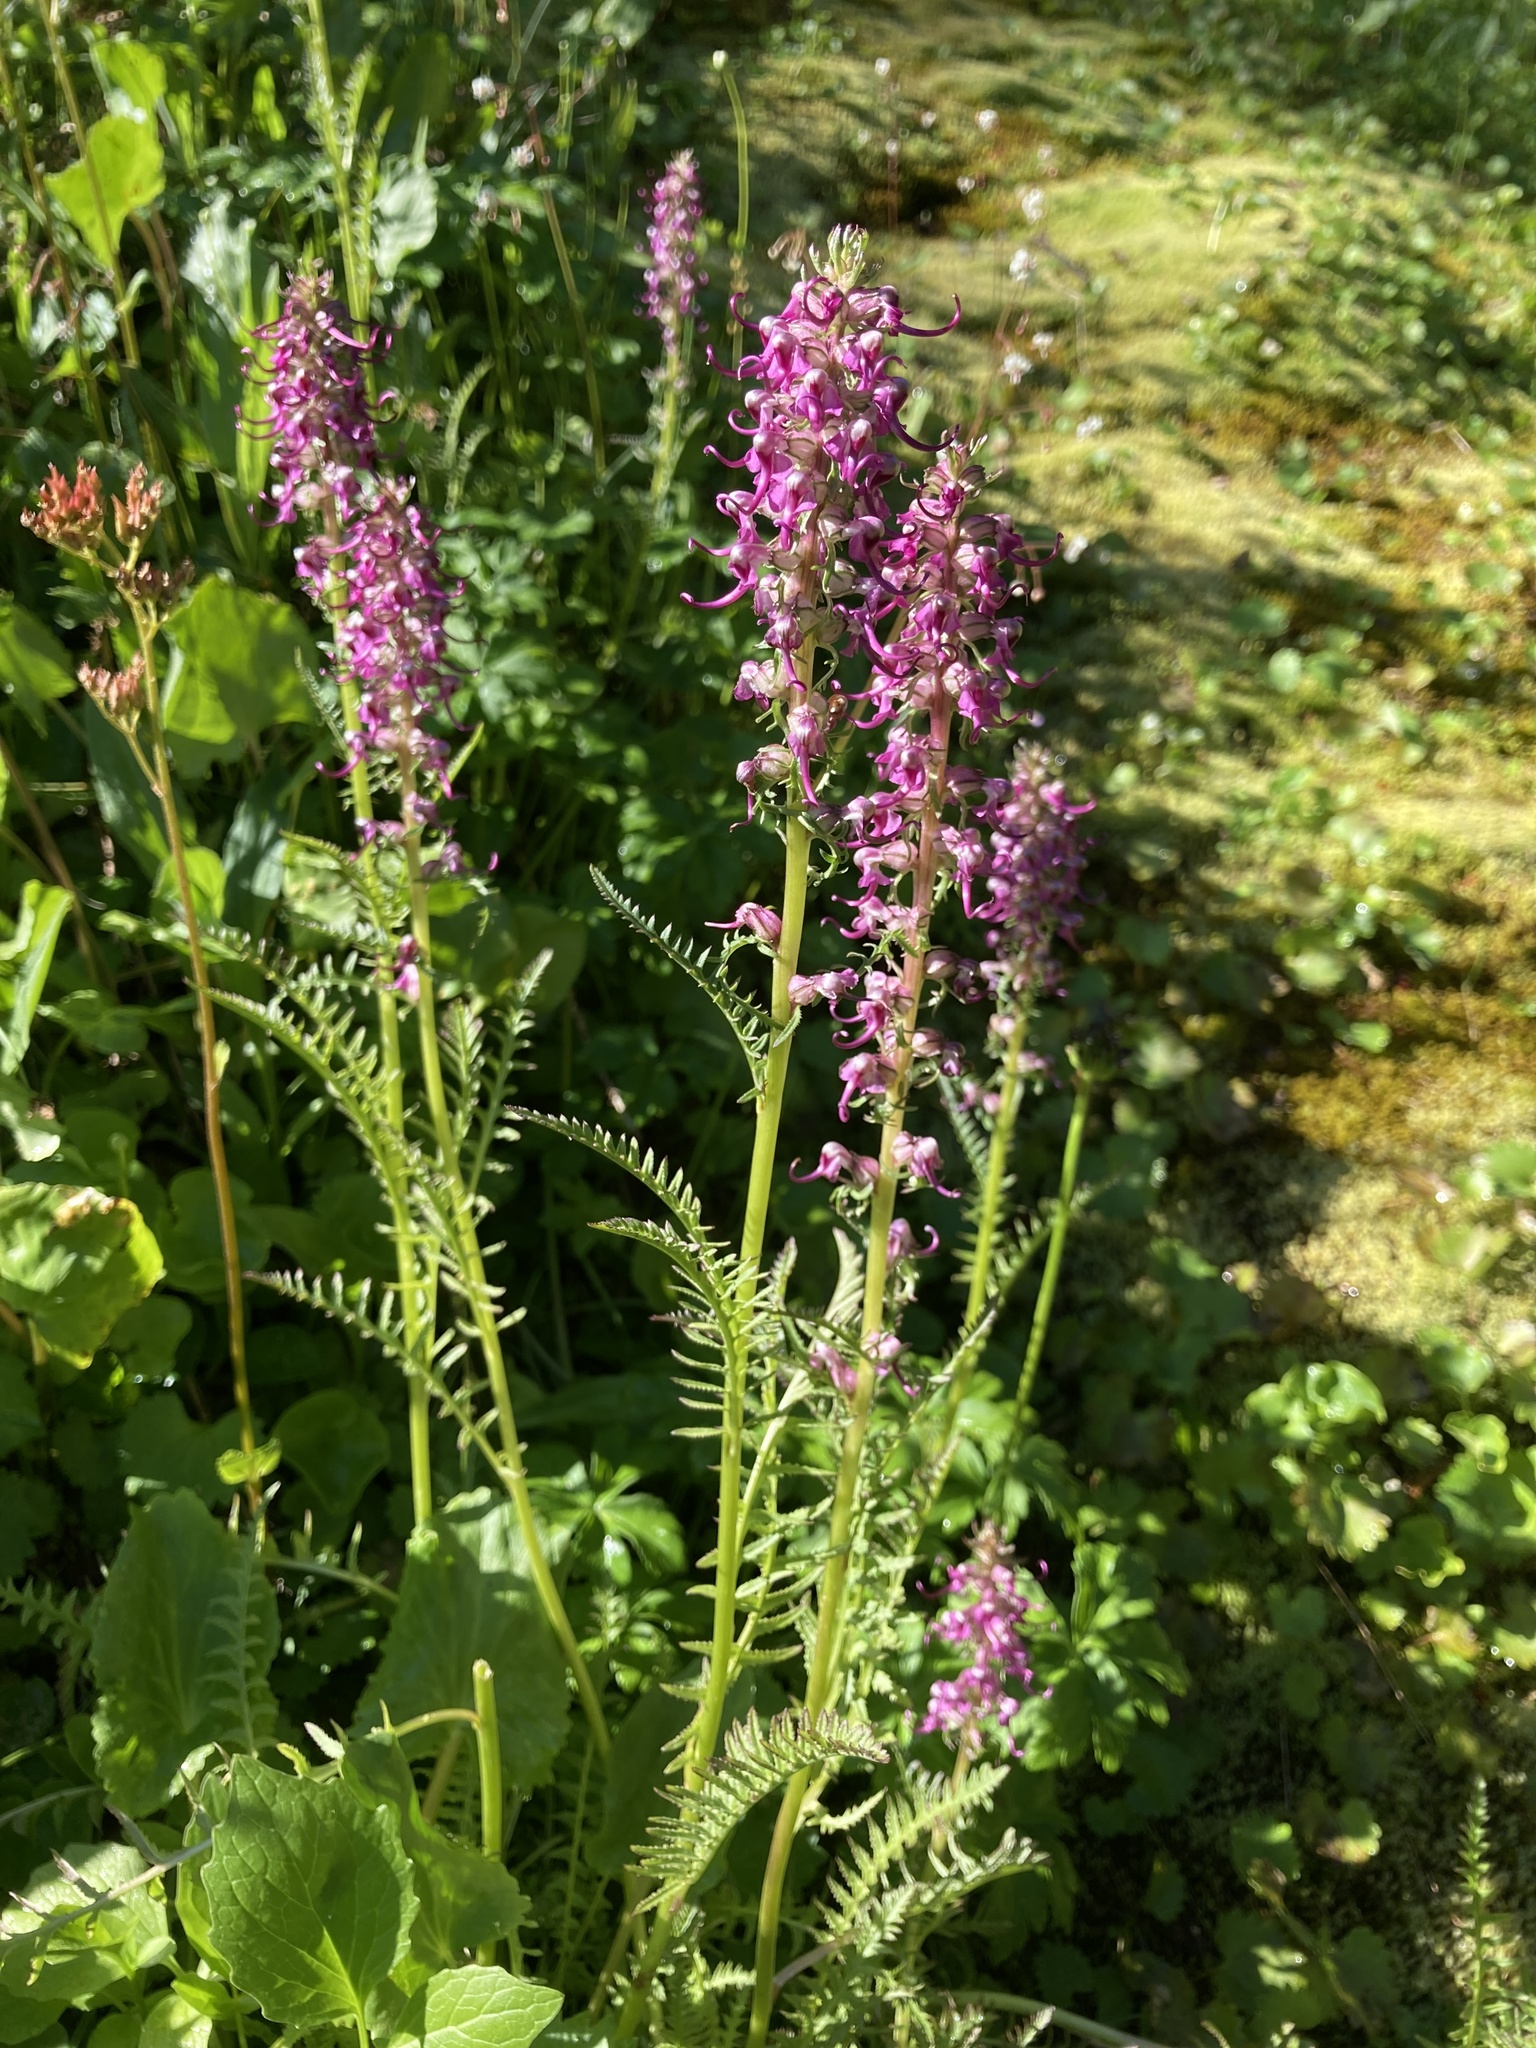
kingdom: Plantae
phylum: Tracheophyta
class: Magnoliopsida
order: Lamiales
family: Orobanchaceae
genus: Pedicularis
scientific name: Pedicularis groenlandica
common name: Elephant's-head
